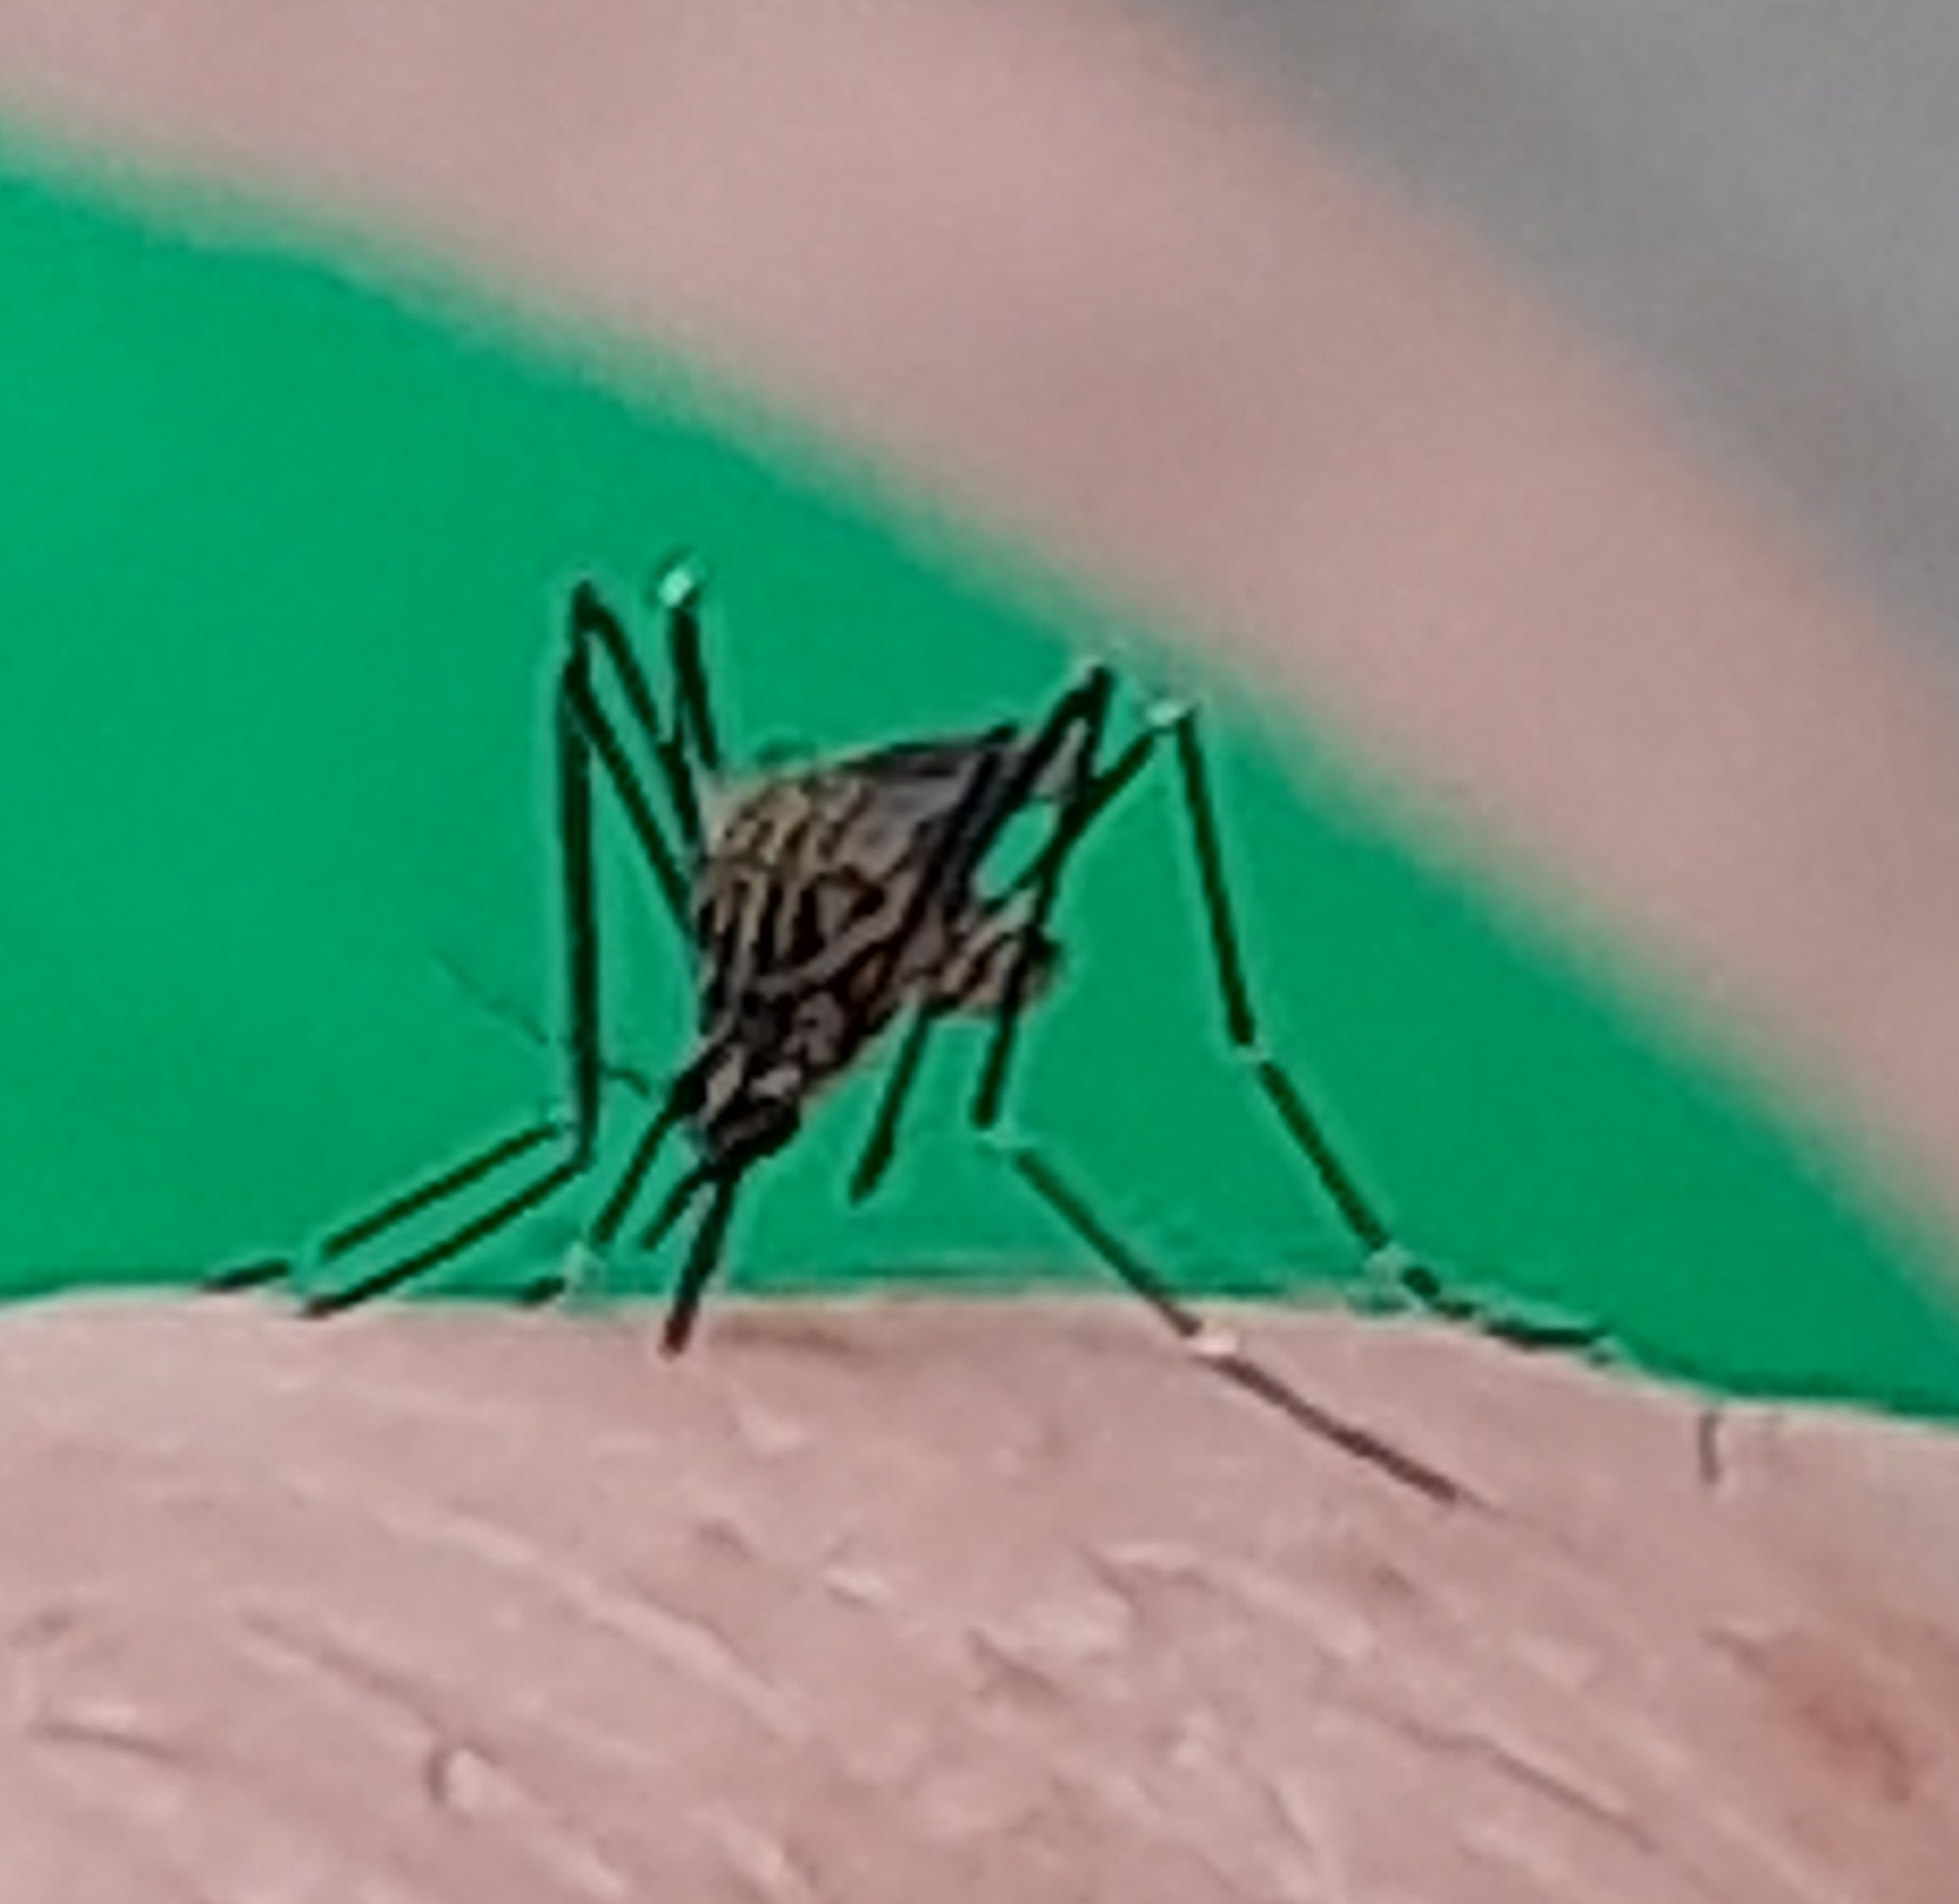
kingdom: Animalia
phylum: Arthropoda
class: Insecta
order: Diptera
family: Culicidae
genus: Aedes
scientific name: Aedes japonicus
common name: Asian bush mosquito
